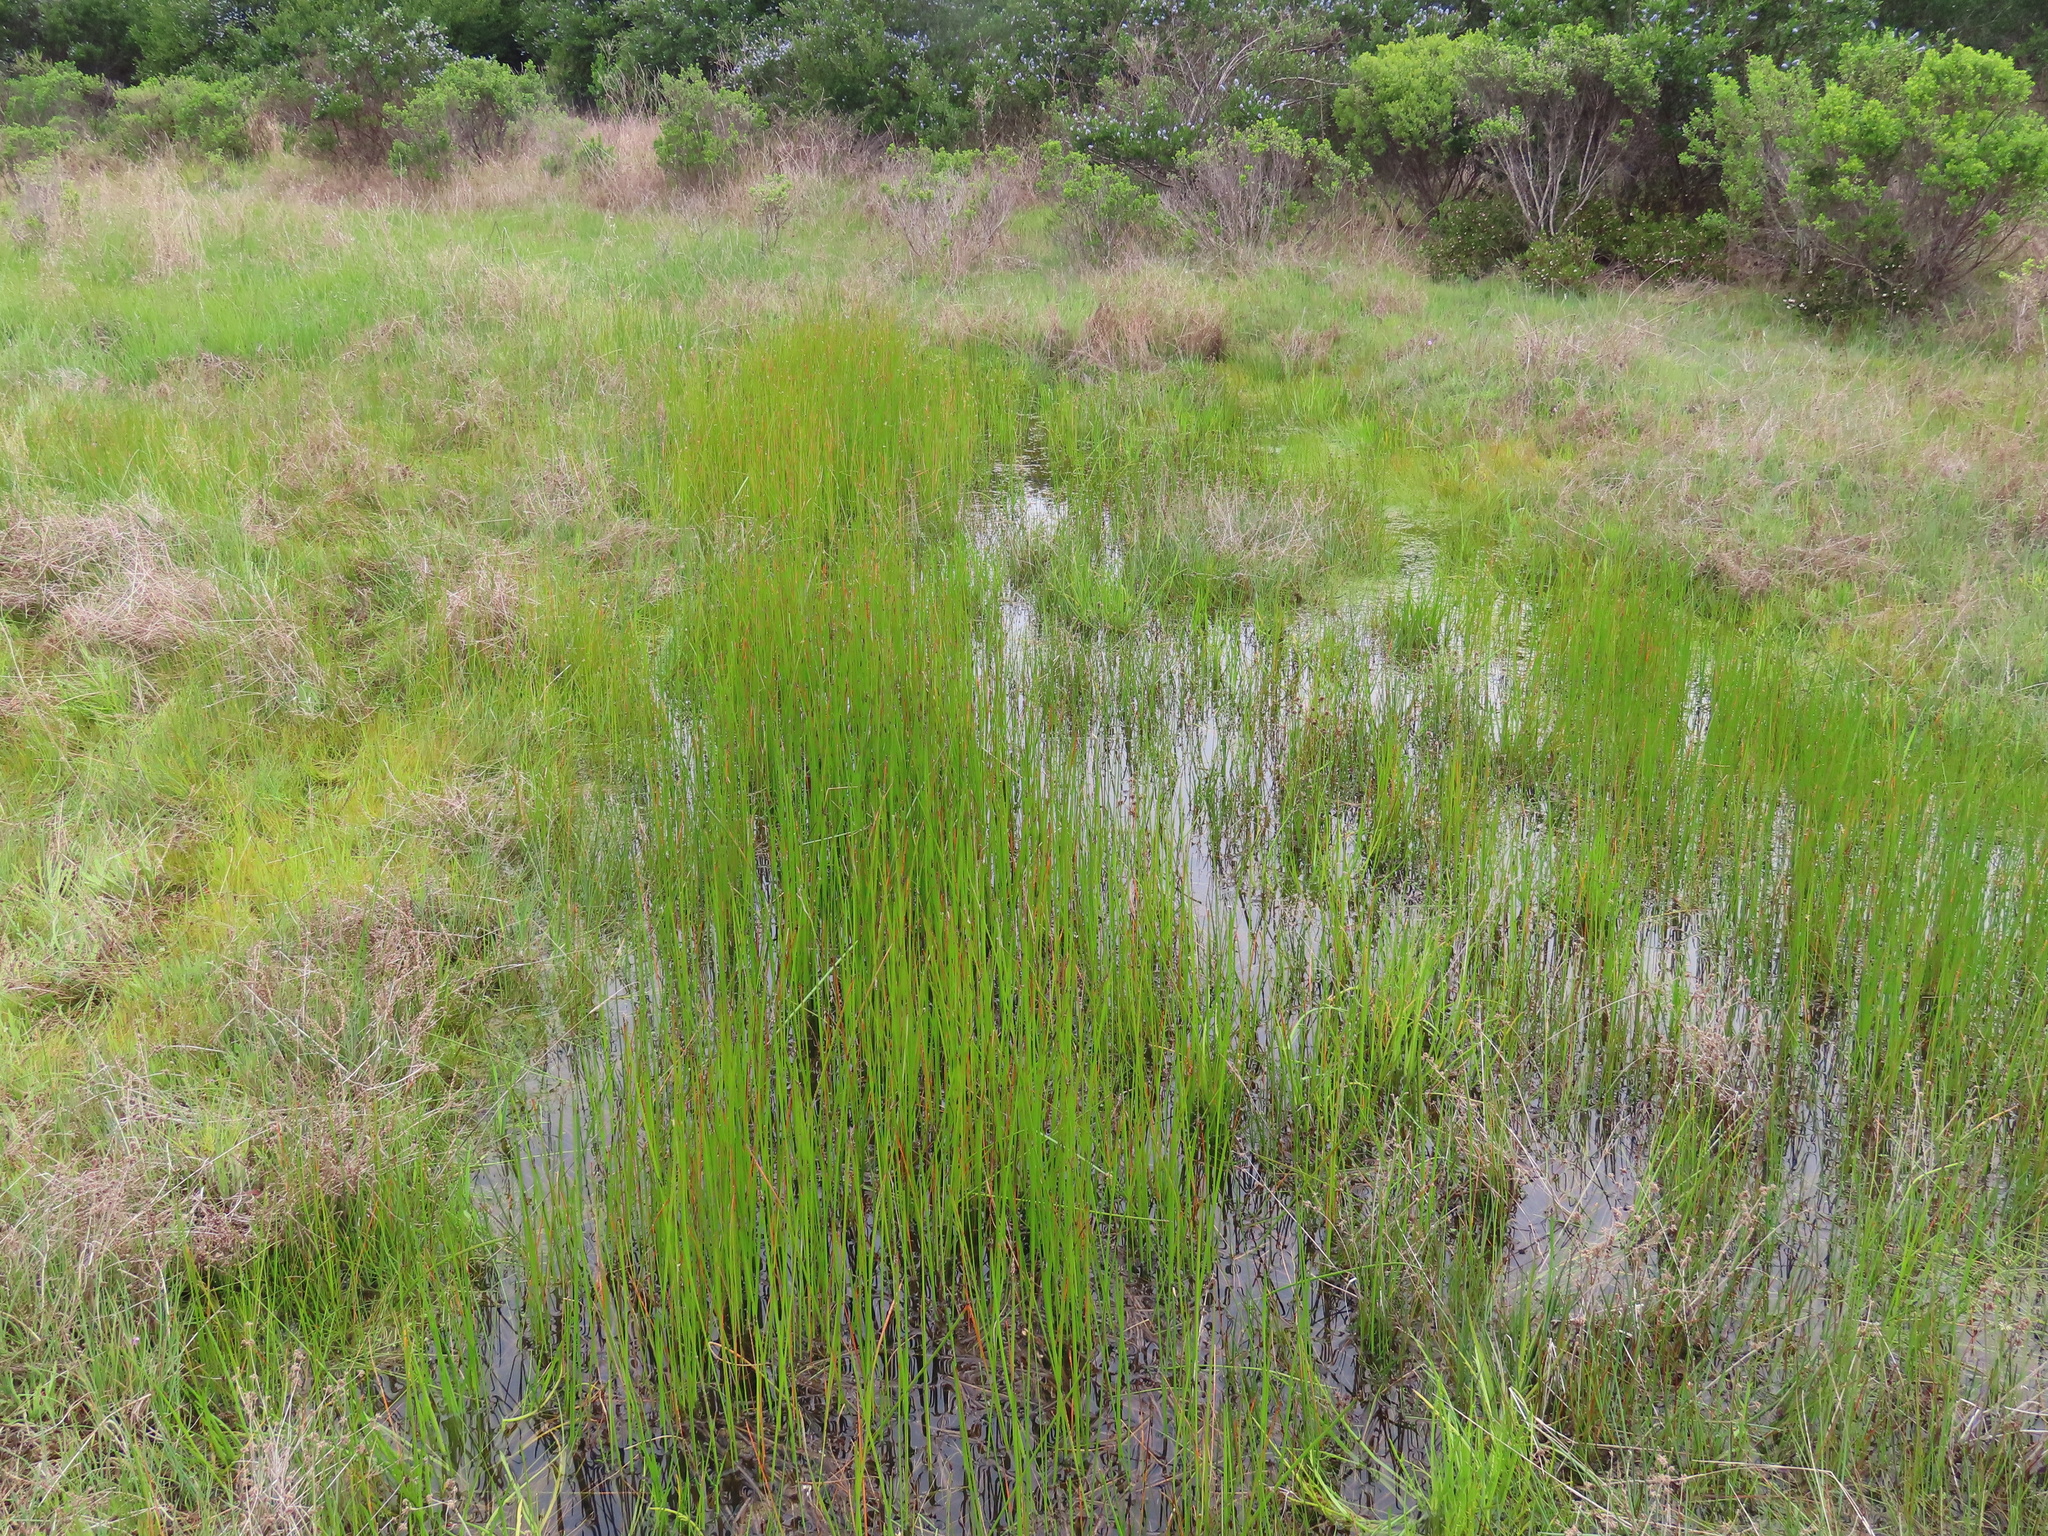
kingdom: Plantae
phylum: Tracheophyta
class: Liliopsida
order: Poales
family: Cyperaceae
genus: Eleocharis
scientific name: Eleocharis macrostachya
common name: Pale spikerush
